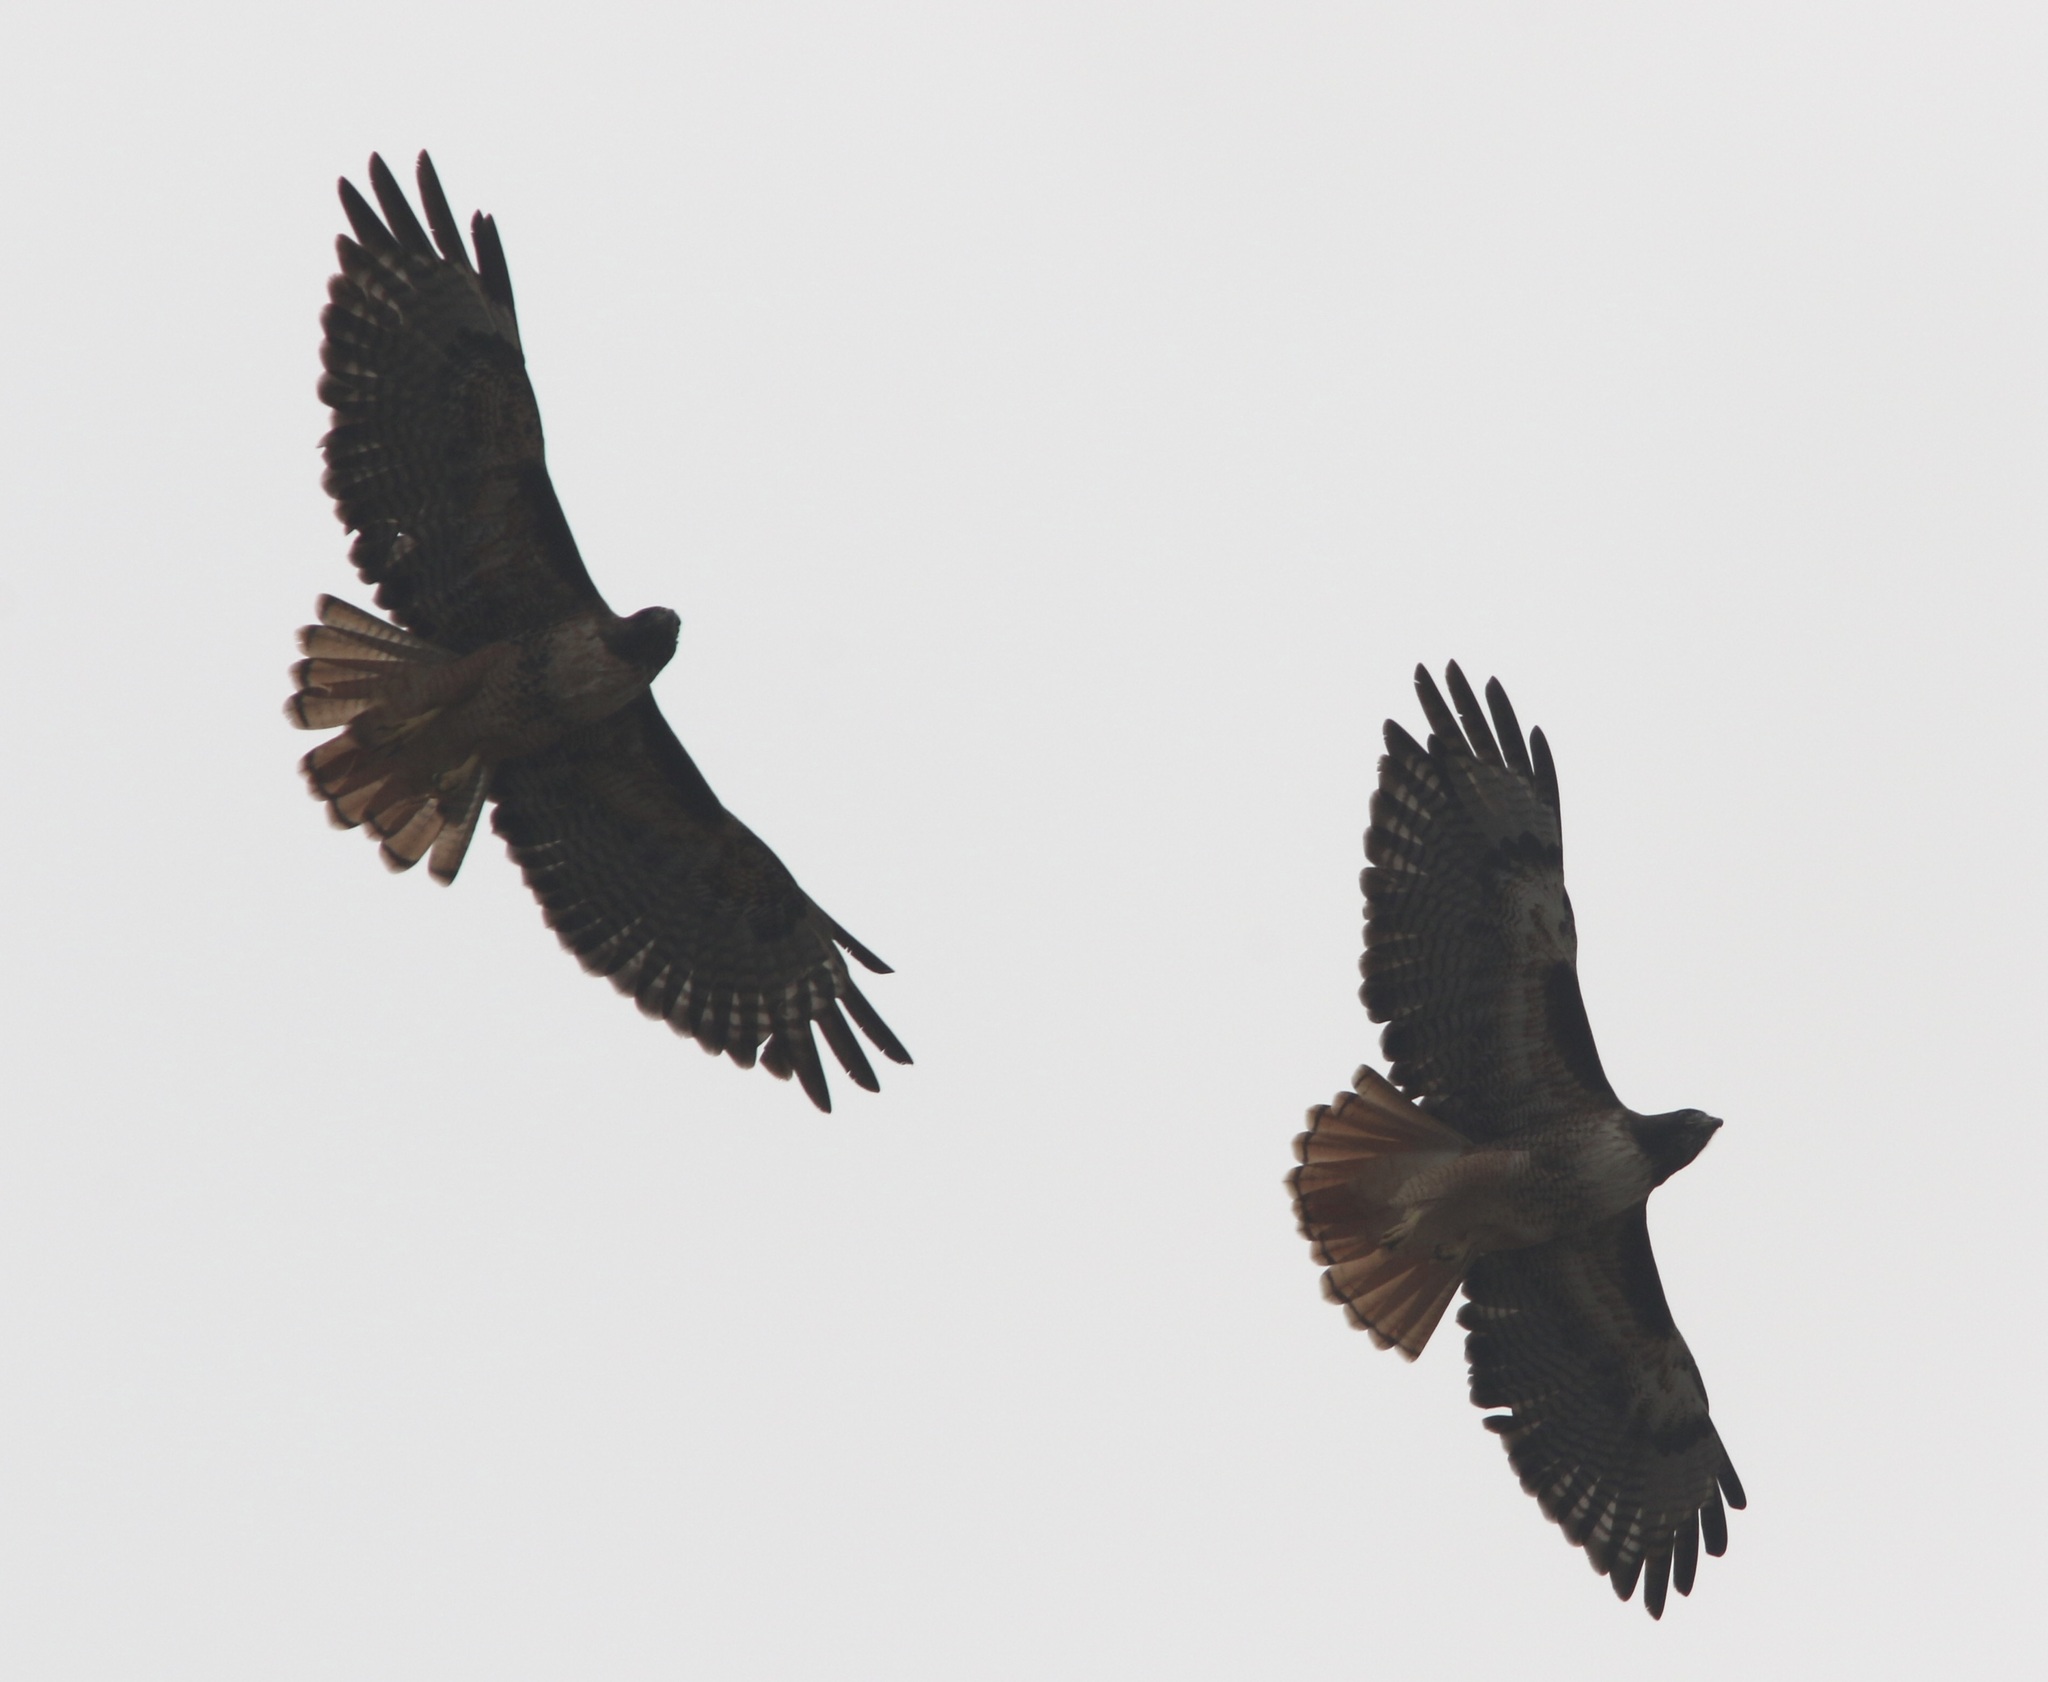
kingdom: Animalia
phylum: Chordata
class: Aves
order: Accipitriformes
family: Accipitridae
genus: Buteo
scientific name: Buteo jamaicensis
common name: Red-tailed hawk
